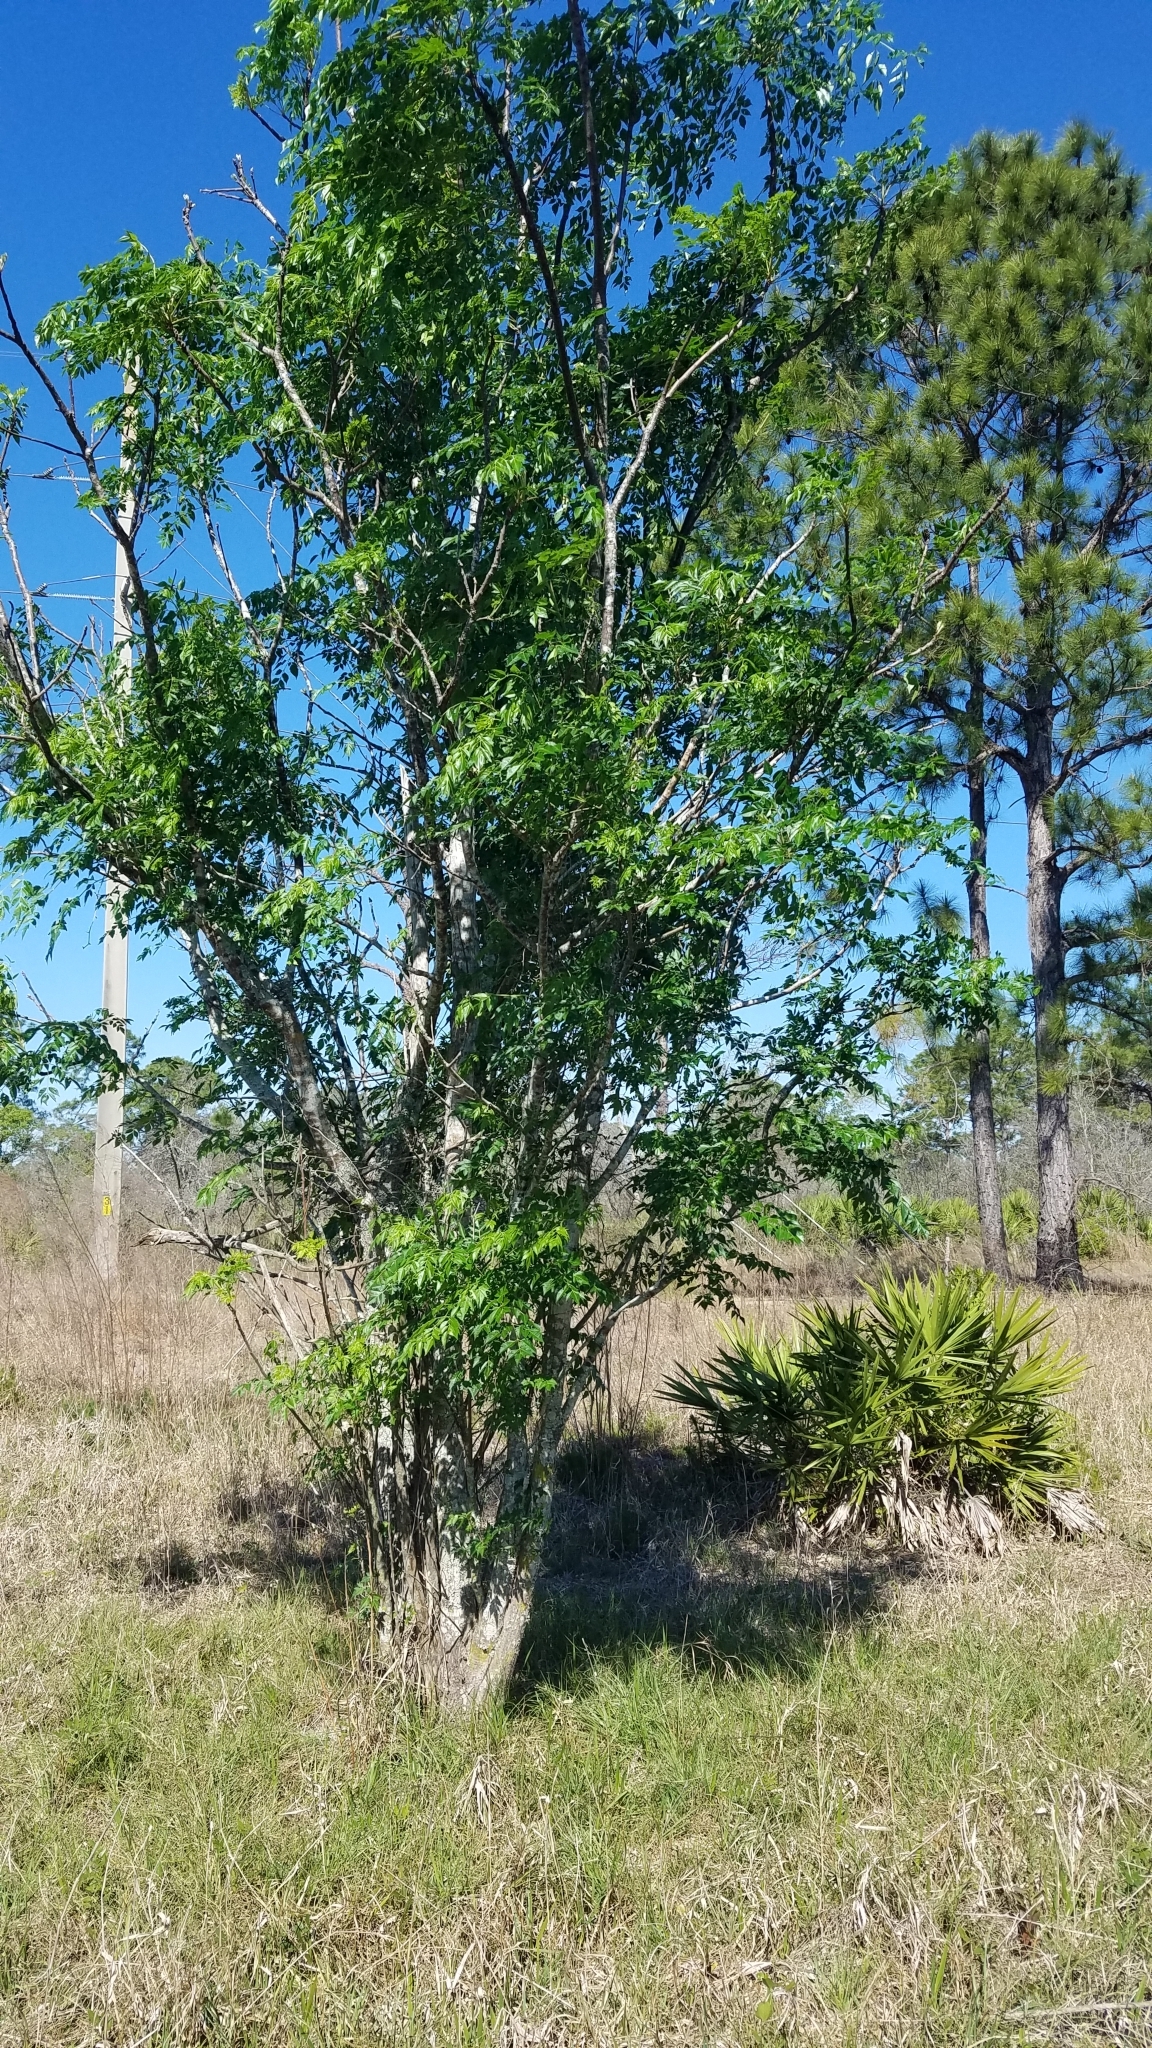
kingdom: Plantae
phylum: Tracheophyta
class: Magnoliopsida
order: Sapindales
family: Meliaceae
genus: Melia
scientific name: Melia azedarach
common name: Chinaberrytree
